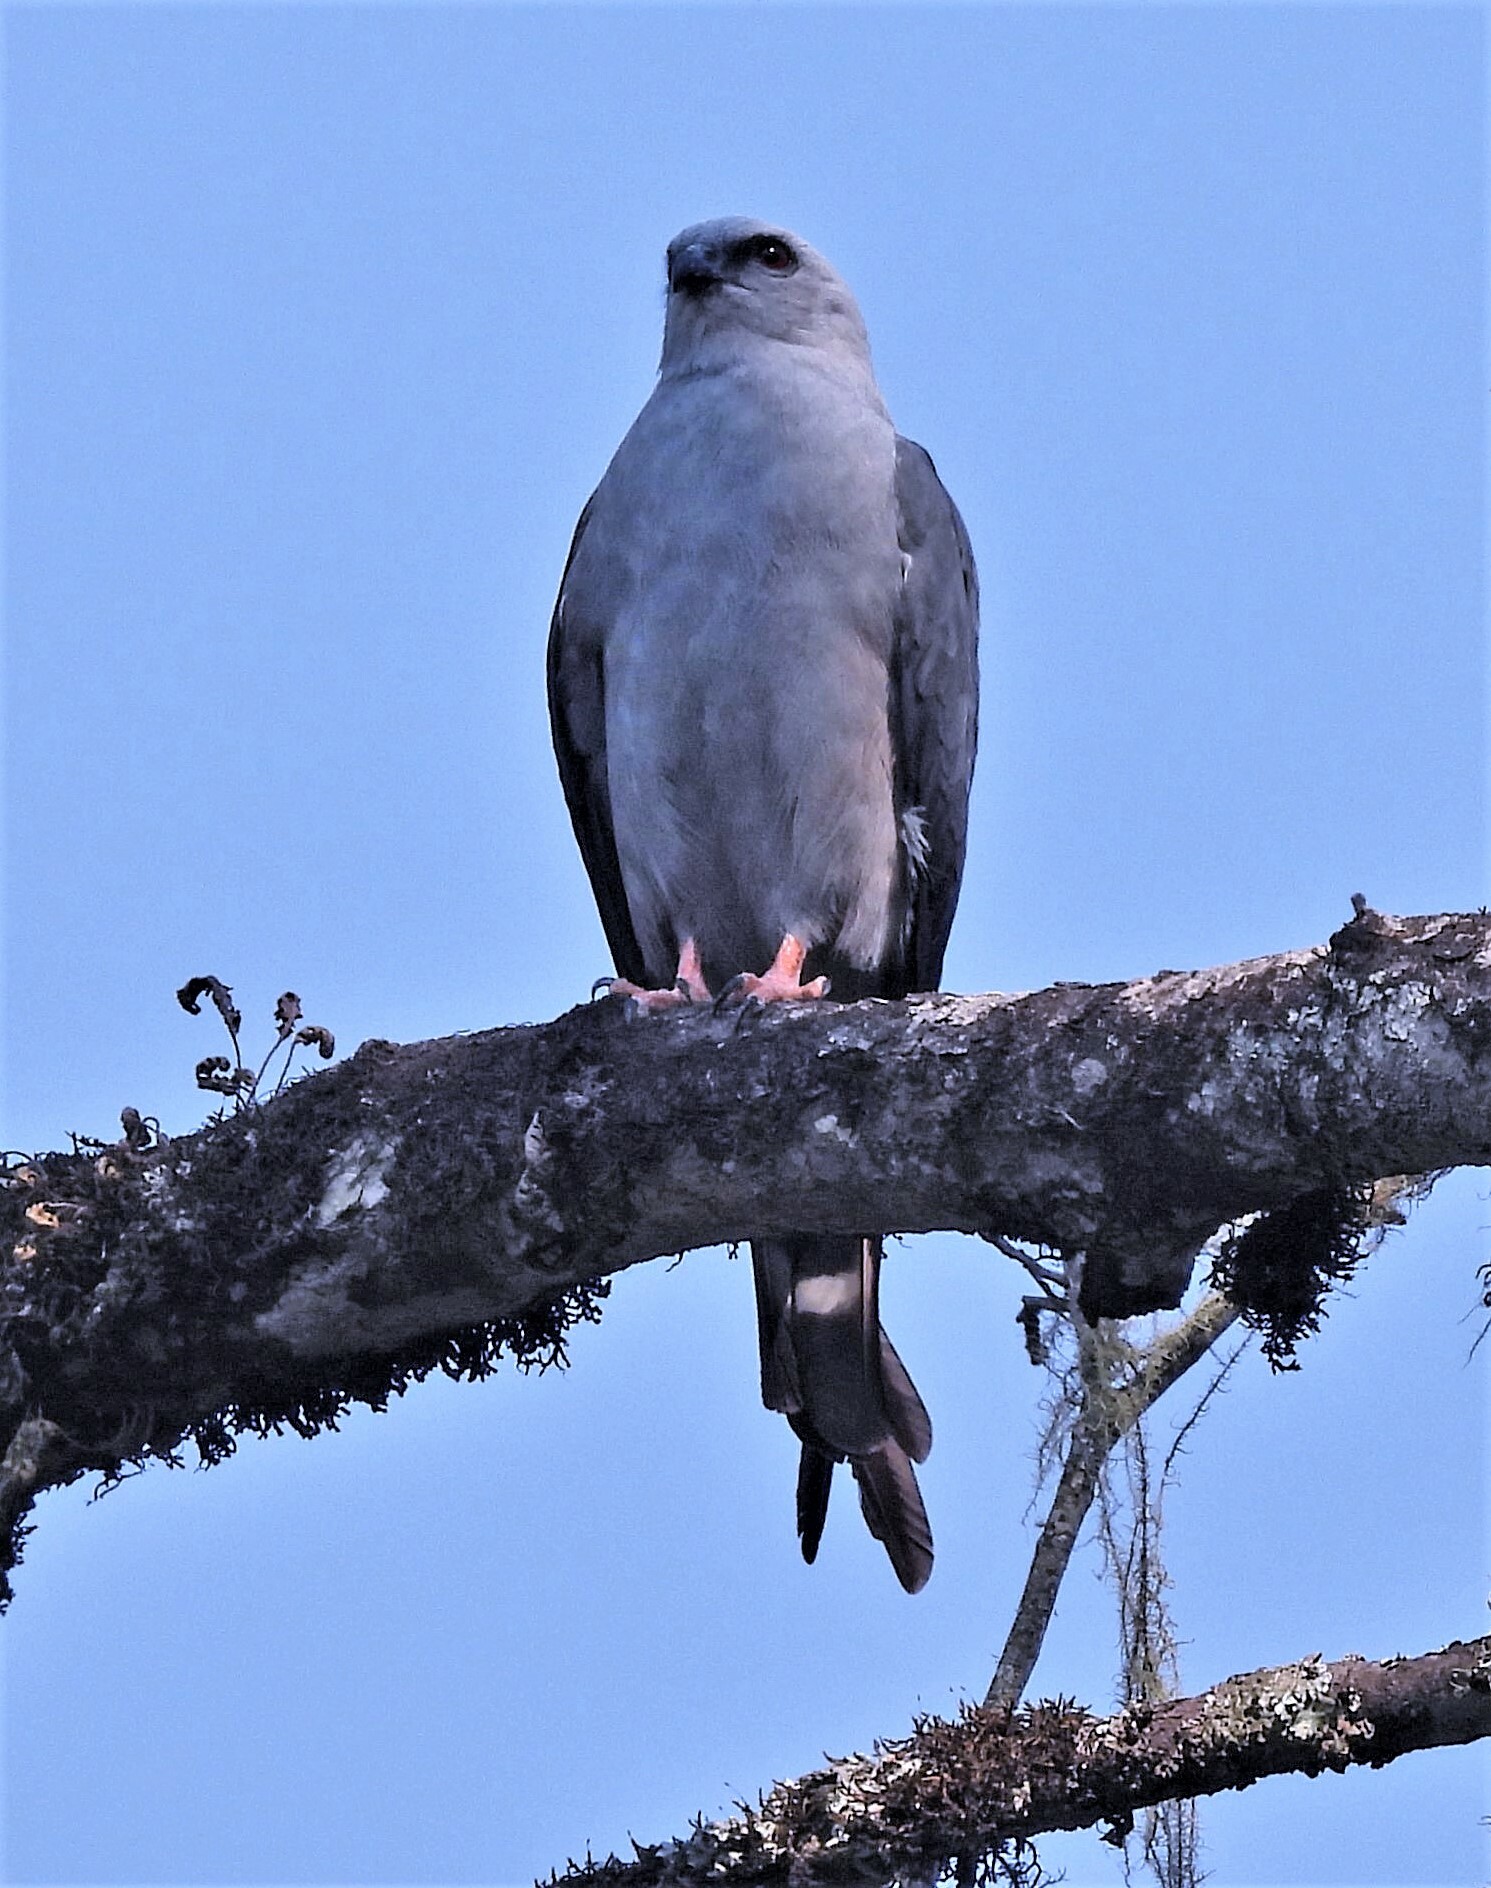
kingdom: Animalia
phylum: Chordata
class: Aves
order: Accipitriformes
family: Accipitridae
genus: Ictinia
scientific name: Ictinia plumbea
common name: Plumbeous kite
